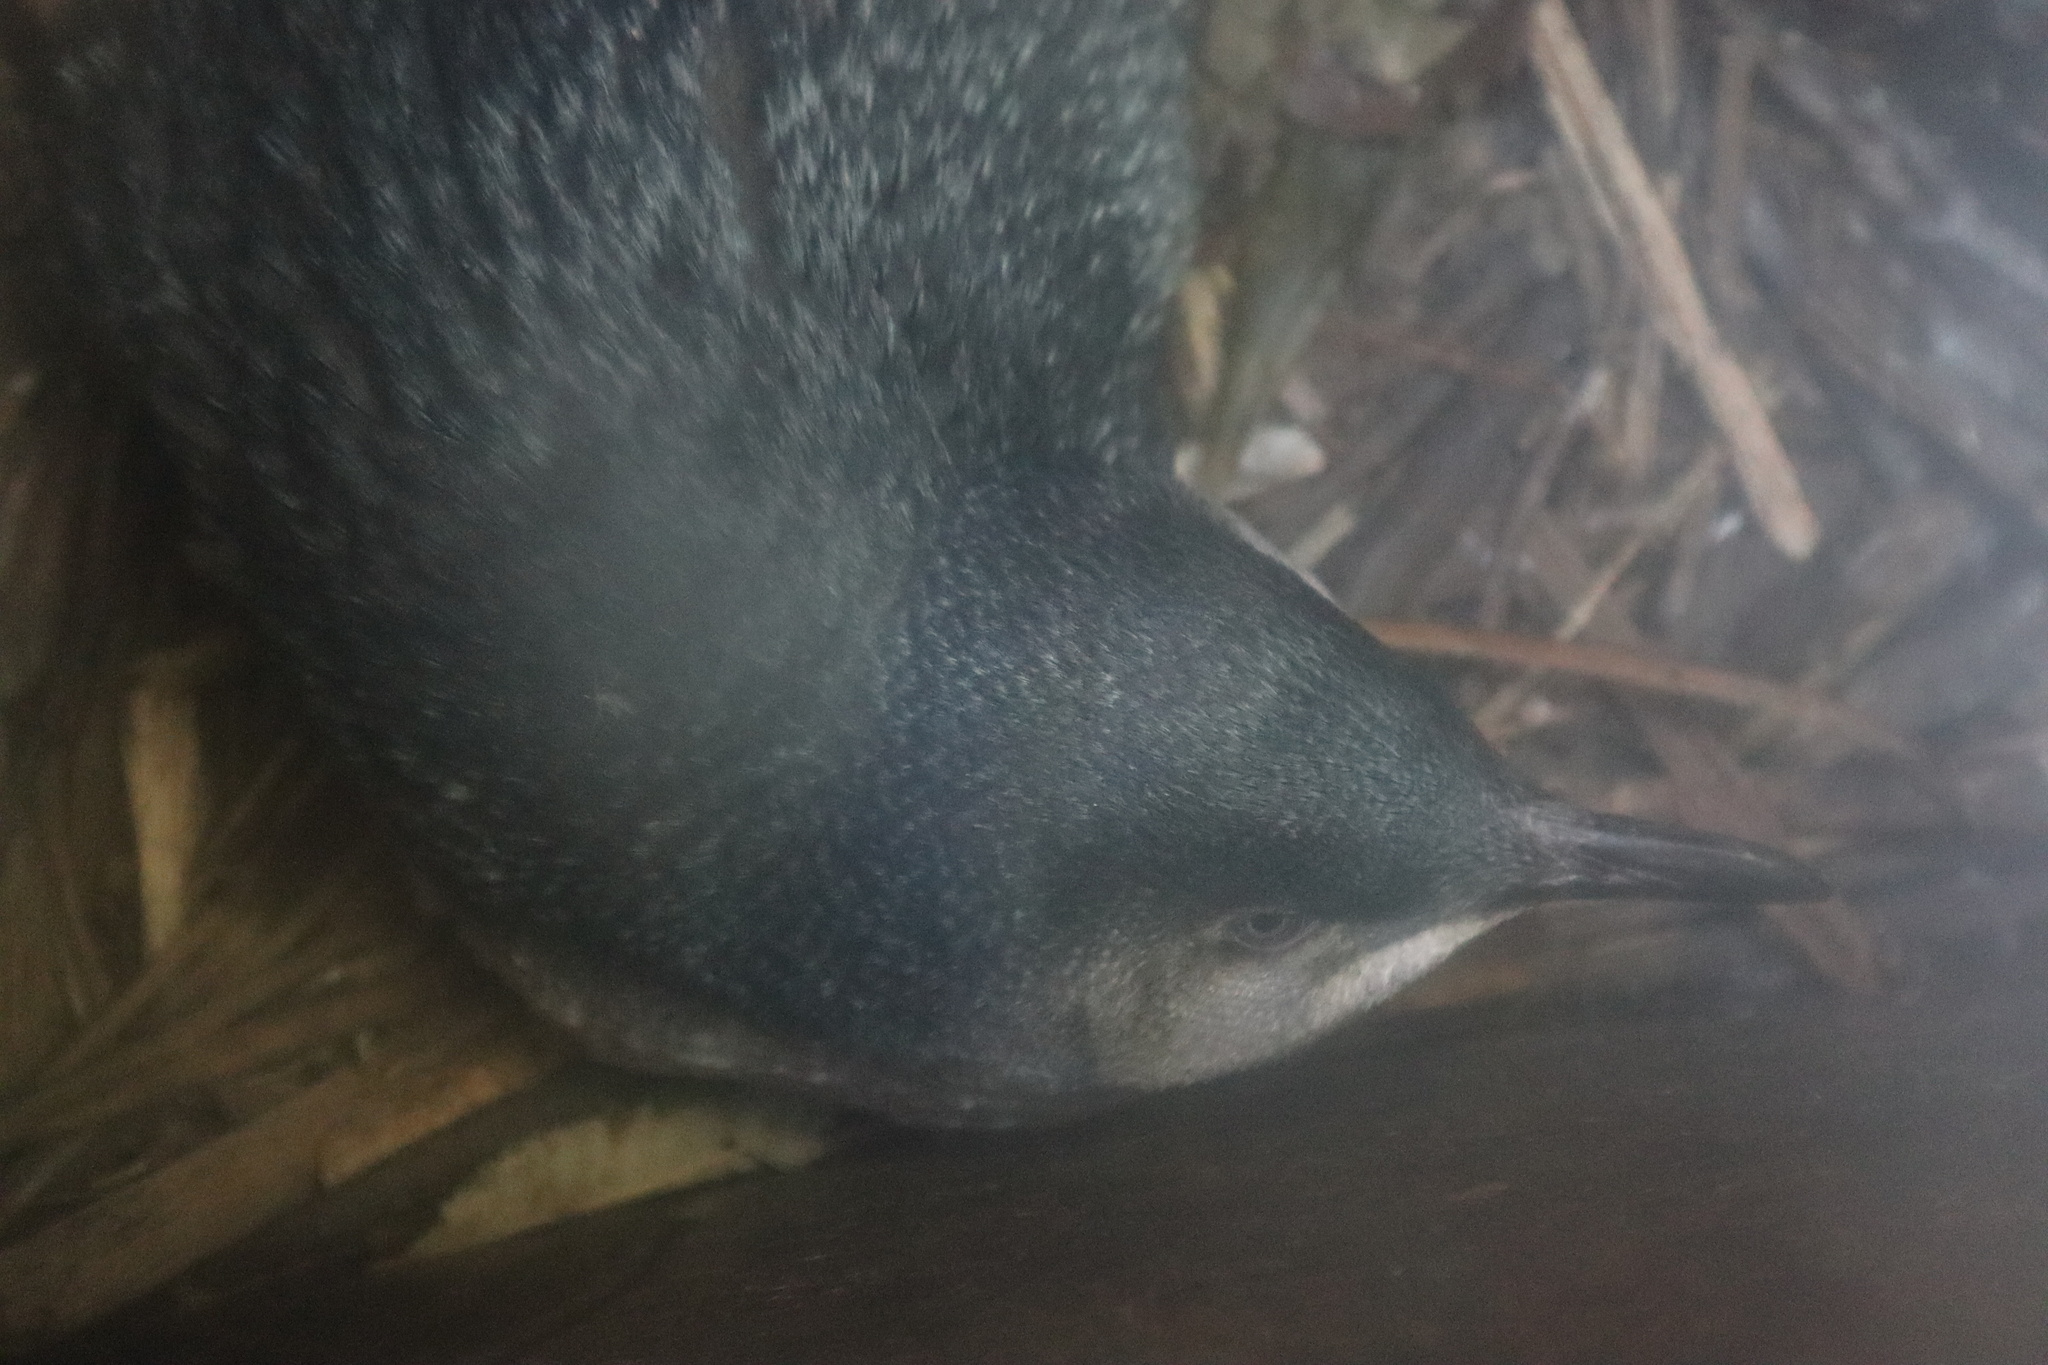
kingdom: Animalia
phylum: Chordata
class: Aves
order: Sphenisciformes
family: Spheniscidae
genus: Eudyptula
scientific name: Eudyptula minor
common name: Little penguin
